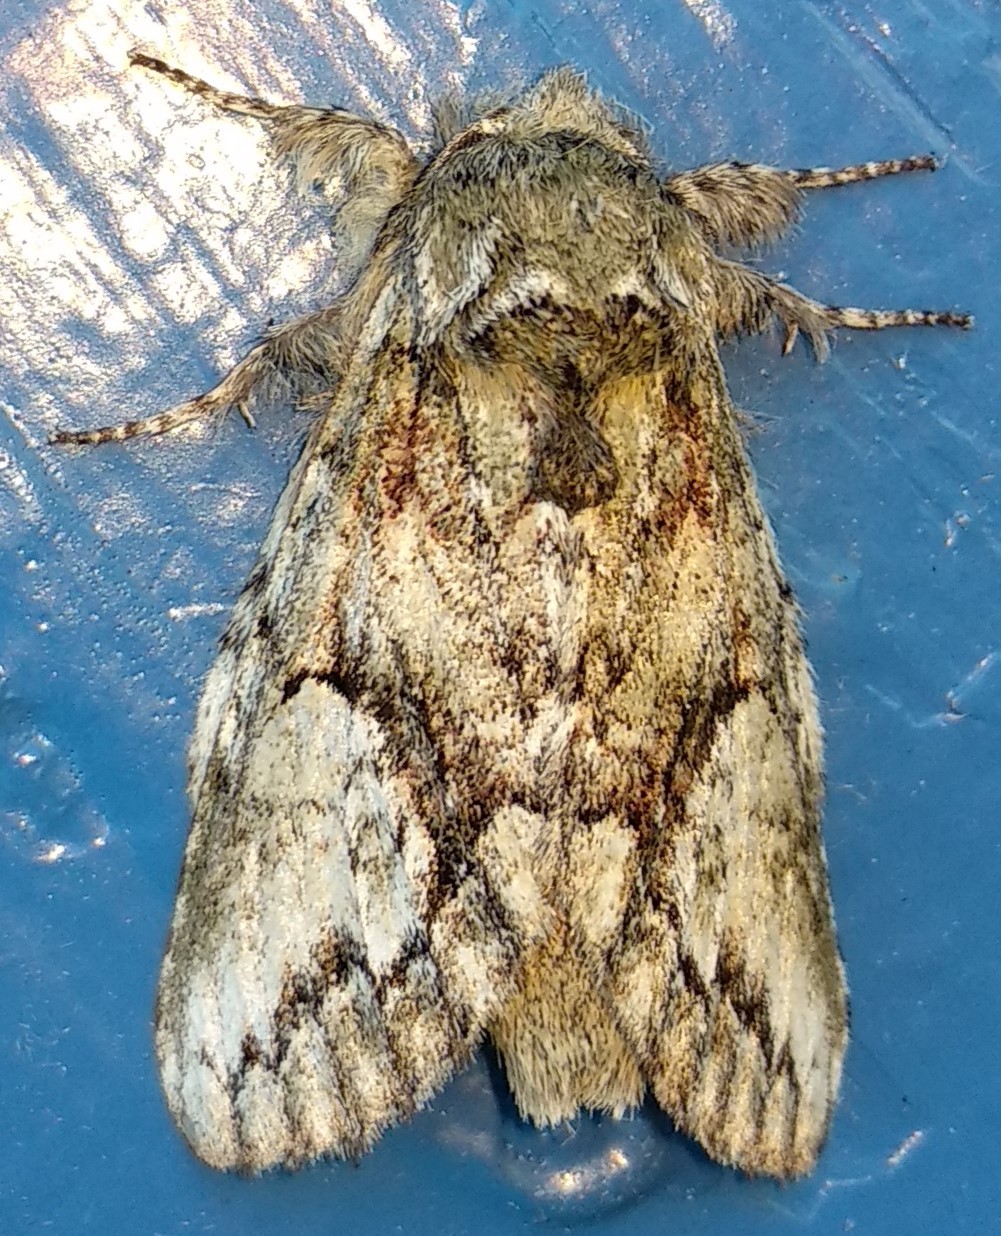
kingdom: Animalia
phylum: Arthropoda
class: Insecta
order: Lepidoptera
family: Notodontidae
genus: Heterocampa
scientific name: Heterocampa
